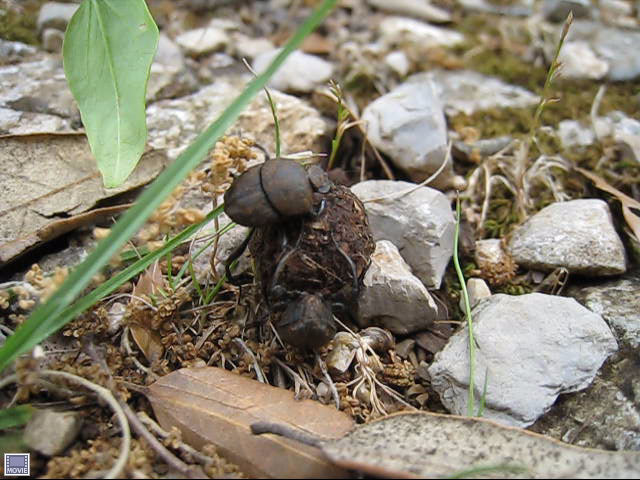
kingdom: Animalia
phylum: Arthropoda
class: Insecta
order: Coleoptera
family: Scarabaeidae
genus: Sisyphus
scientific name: Sisyphus schaefferi
